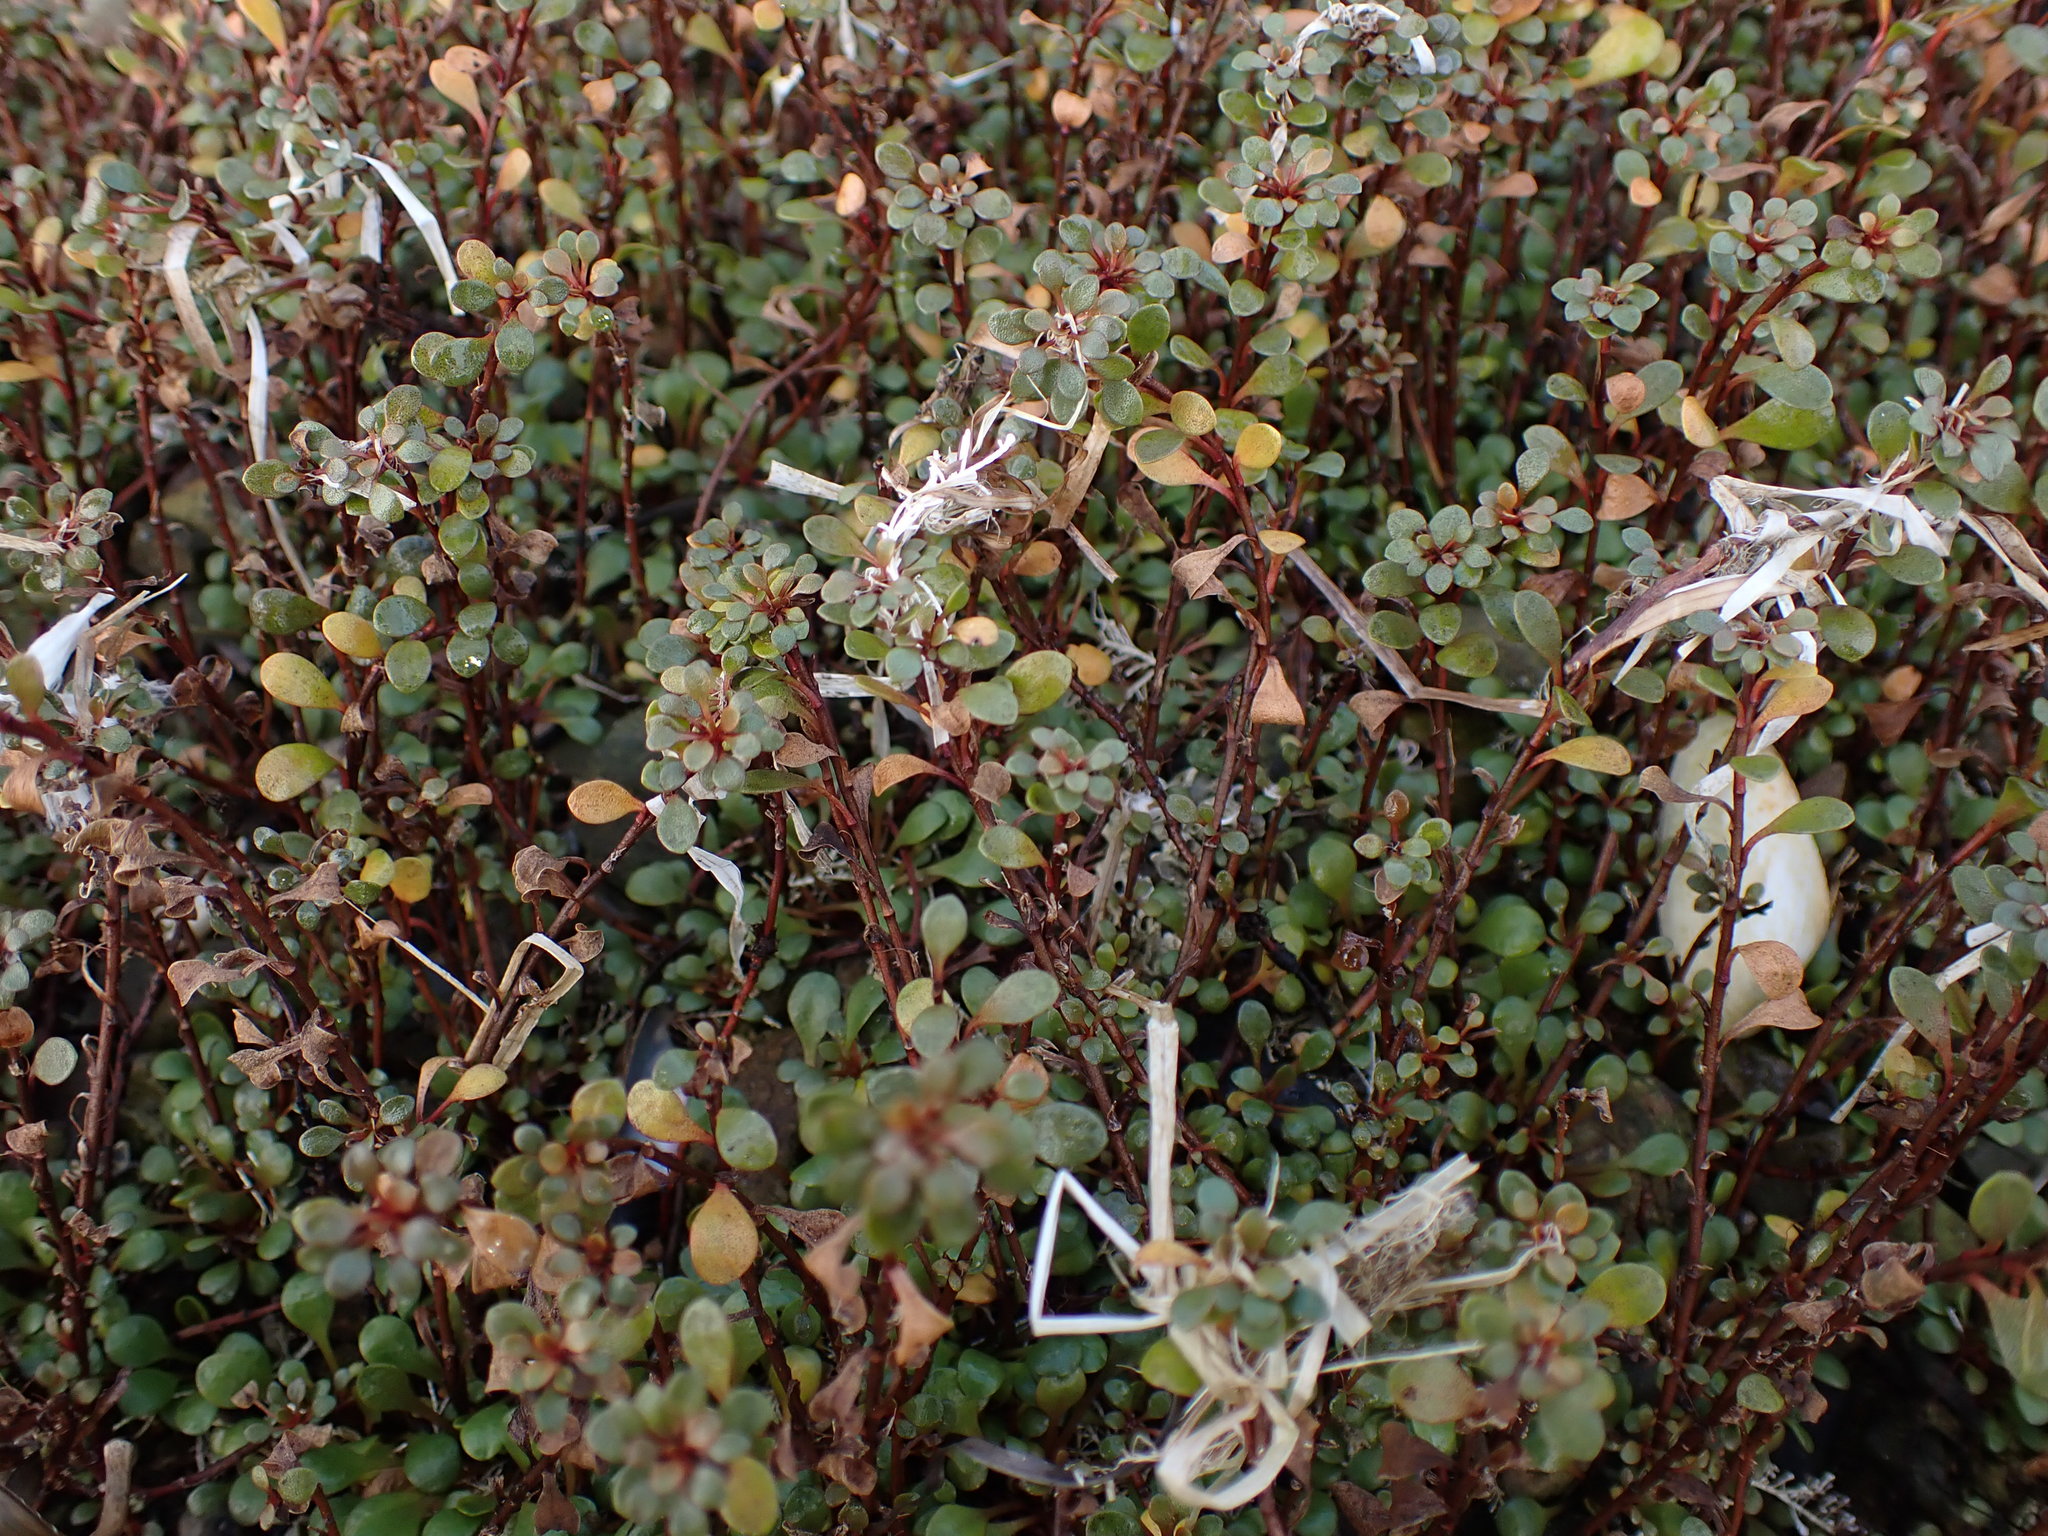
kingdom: Plantae
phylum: Tracheophyta
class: Magnoliopsida
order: Ericales
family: Primulaceae
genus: Samolus
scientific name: Samolus repens
